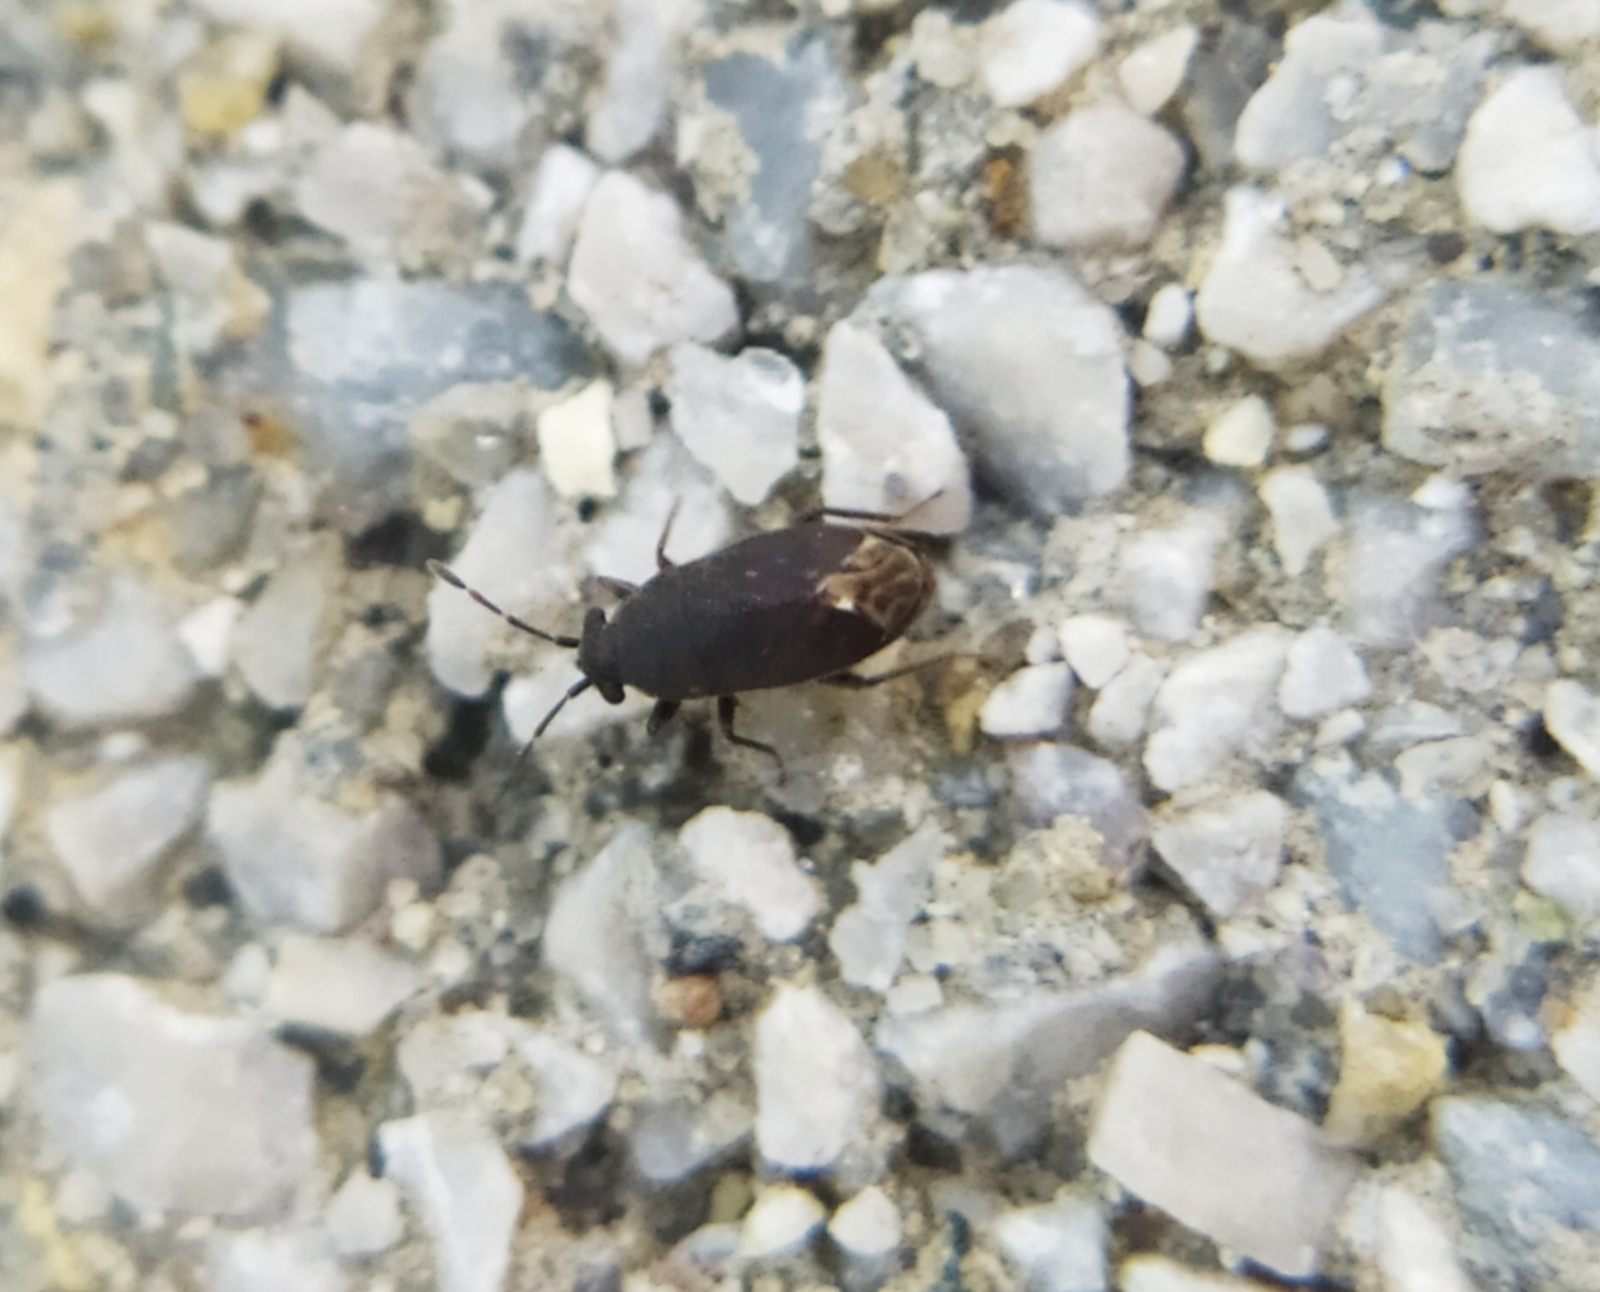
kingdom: Animalia
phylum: Arthropoda
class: Insecta
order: Hemiptera
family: Rhyparochromidae
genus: Stygnocoris
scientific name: Stygnocoris fuligineus
